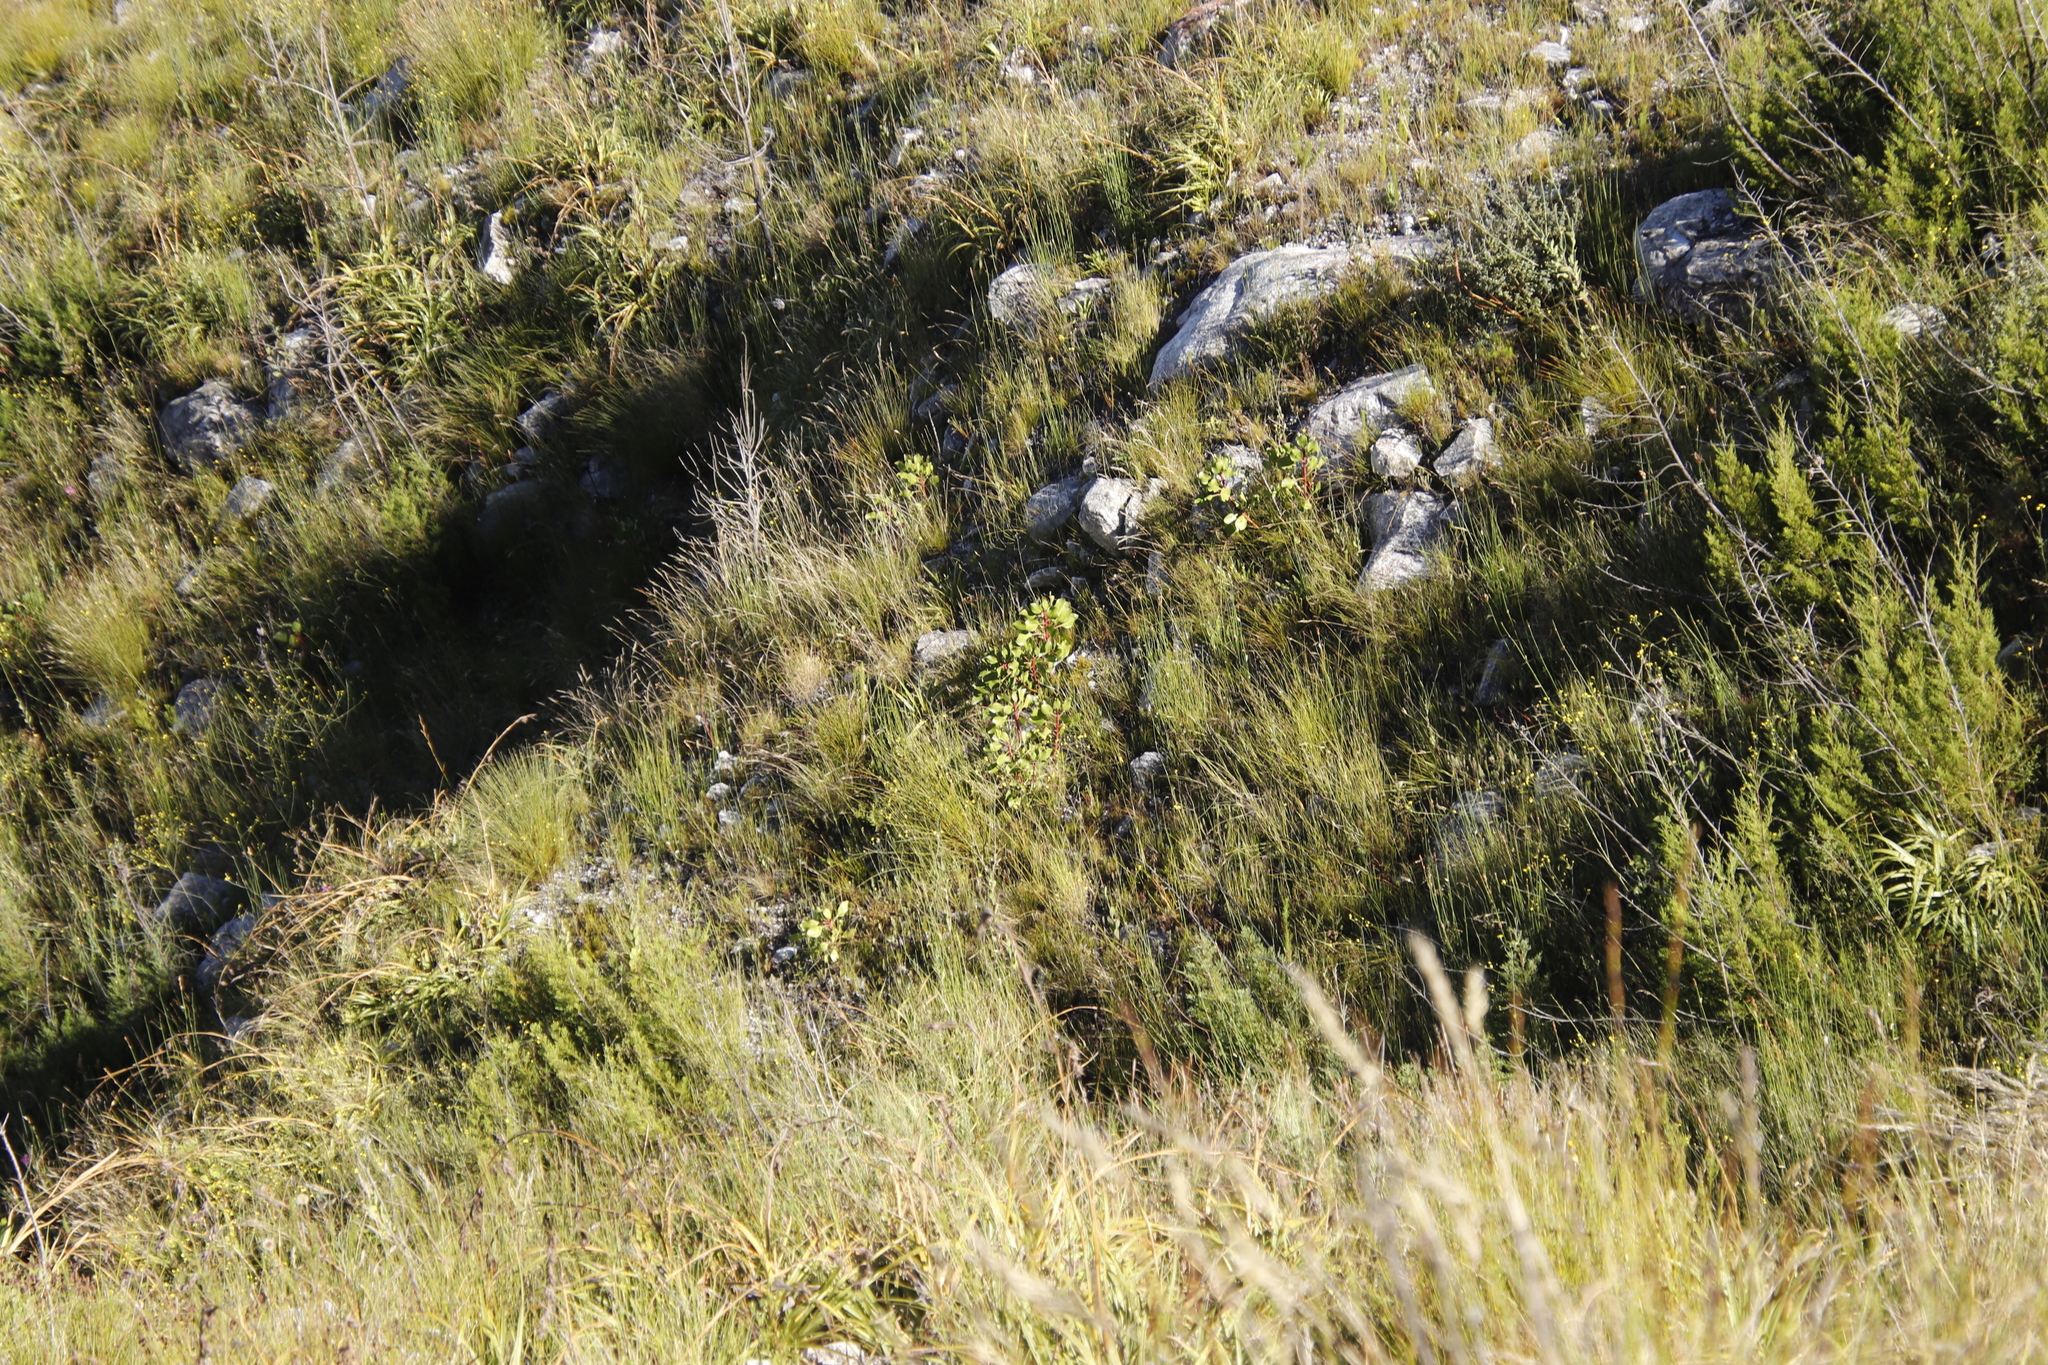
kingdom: Plantae
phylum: Tracheophyta
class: Magnoliopsida
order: Proteales
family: Proteaceae
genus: Protea
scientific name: Protea cynaroides
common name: King protea
